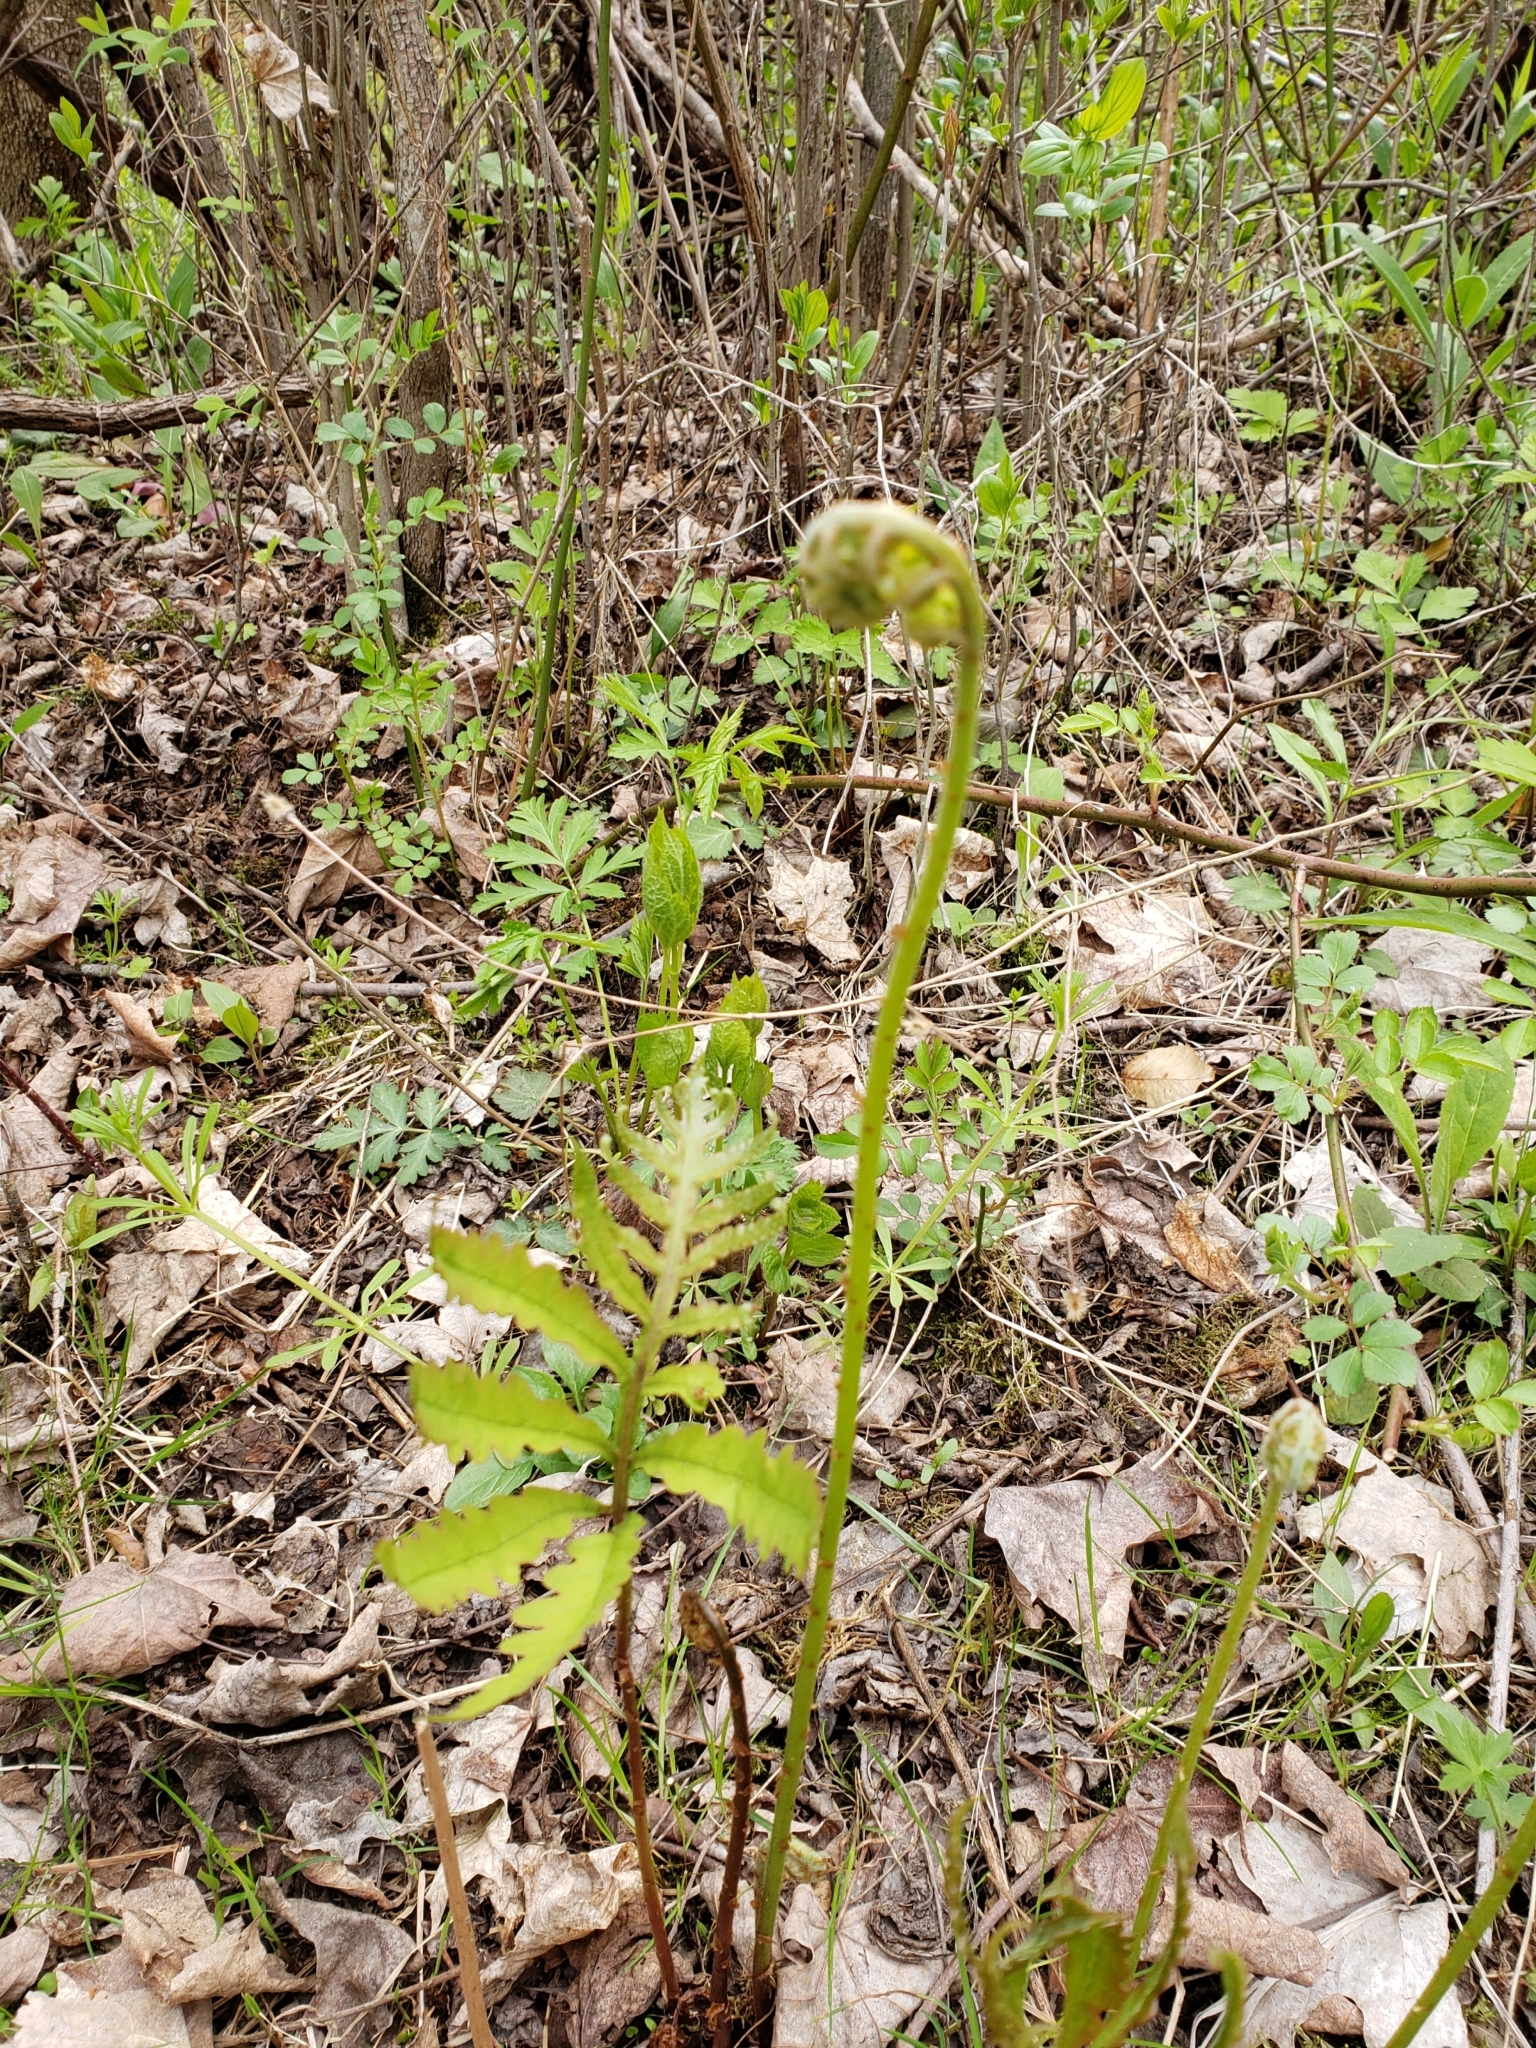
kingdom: Plantae
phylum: Tracheophyta
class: Polypodiopsida
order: Polypodiales
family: Onocleaceae
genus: Onoclea
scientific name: Onoclea sensibilis
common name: Sensitive fern
